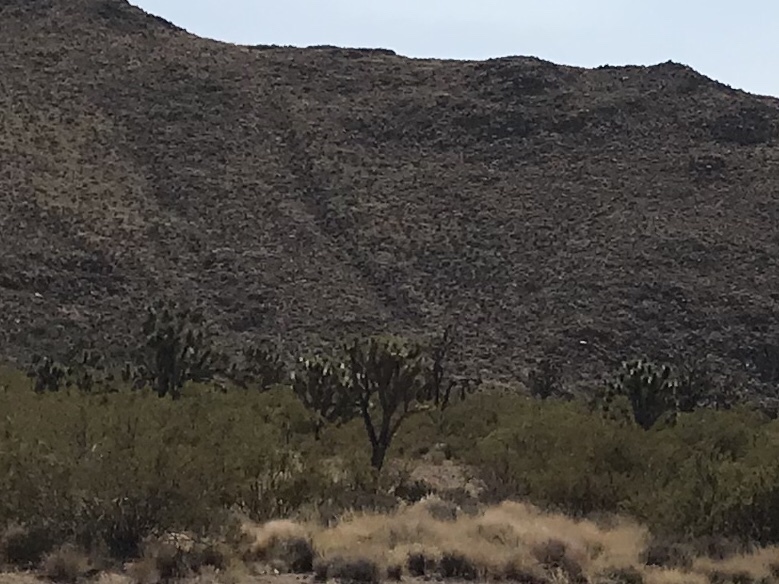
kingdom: Plantae
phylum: Tracheophyta
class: Liliopsida
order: Asparagales
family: Asparagaceae
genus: Yucca
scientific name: Yucca brevifolia
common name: Joshua tree
